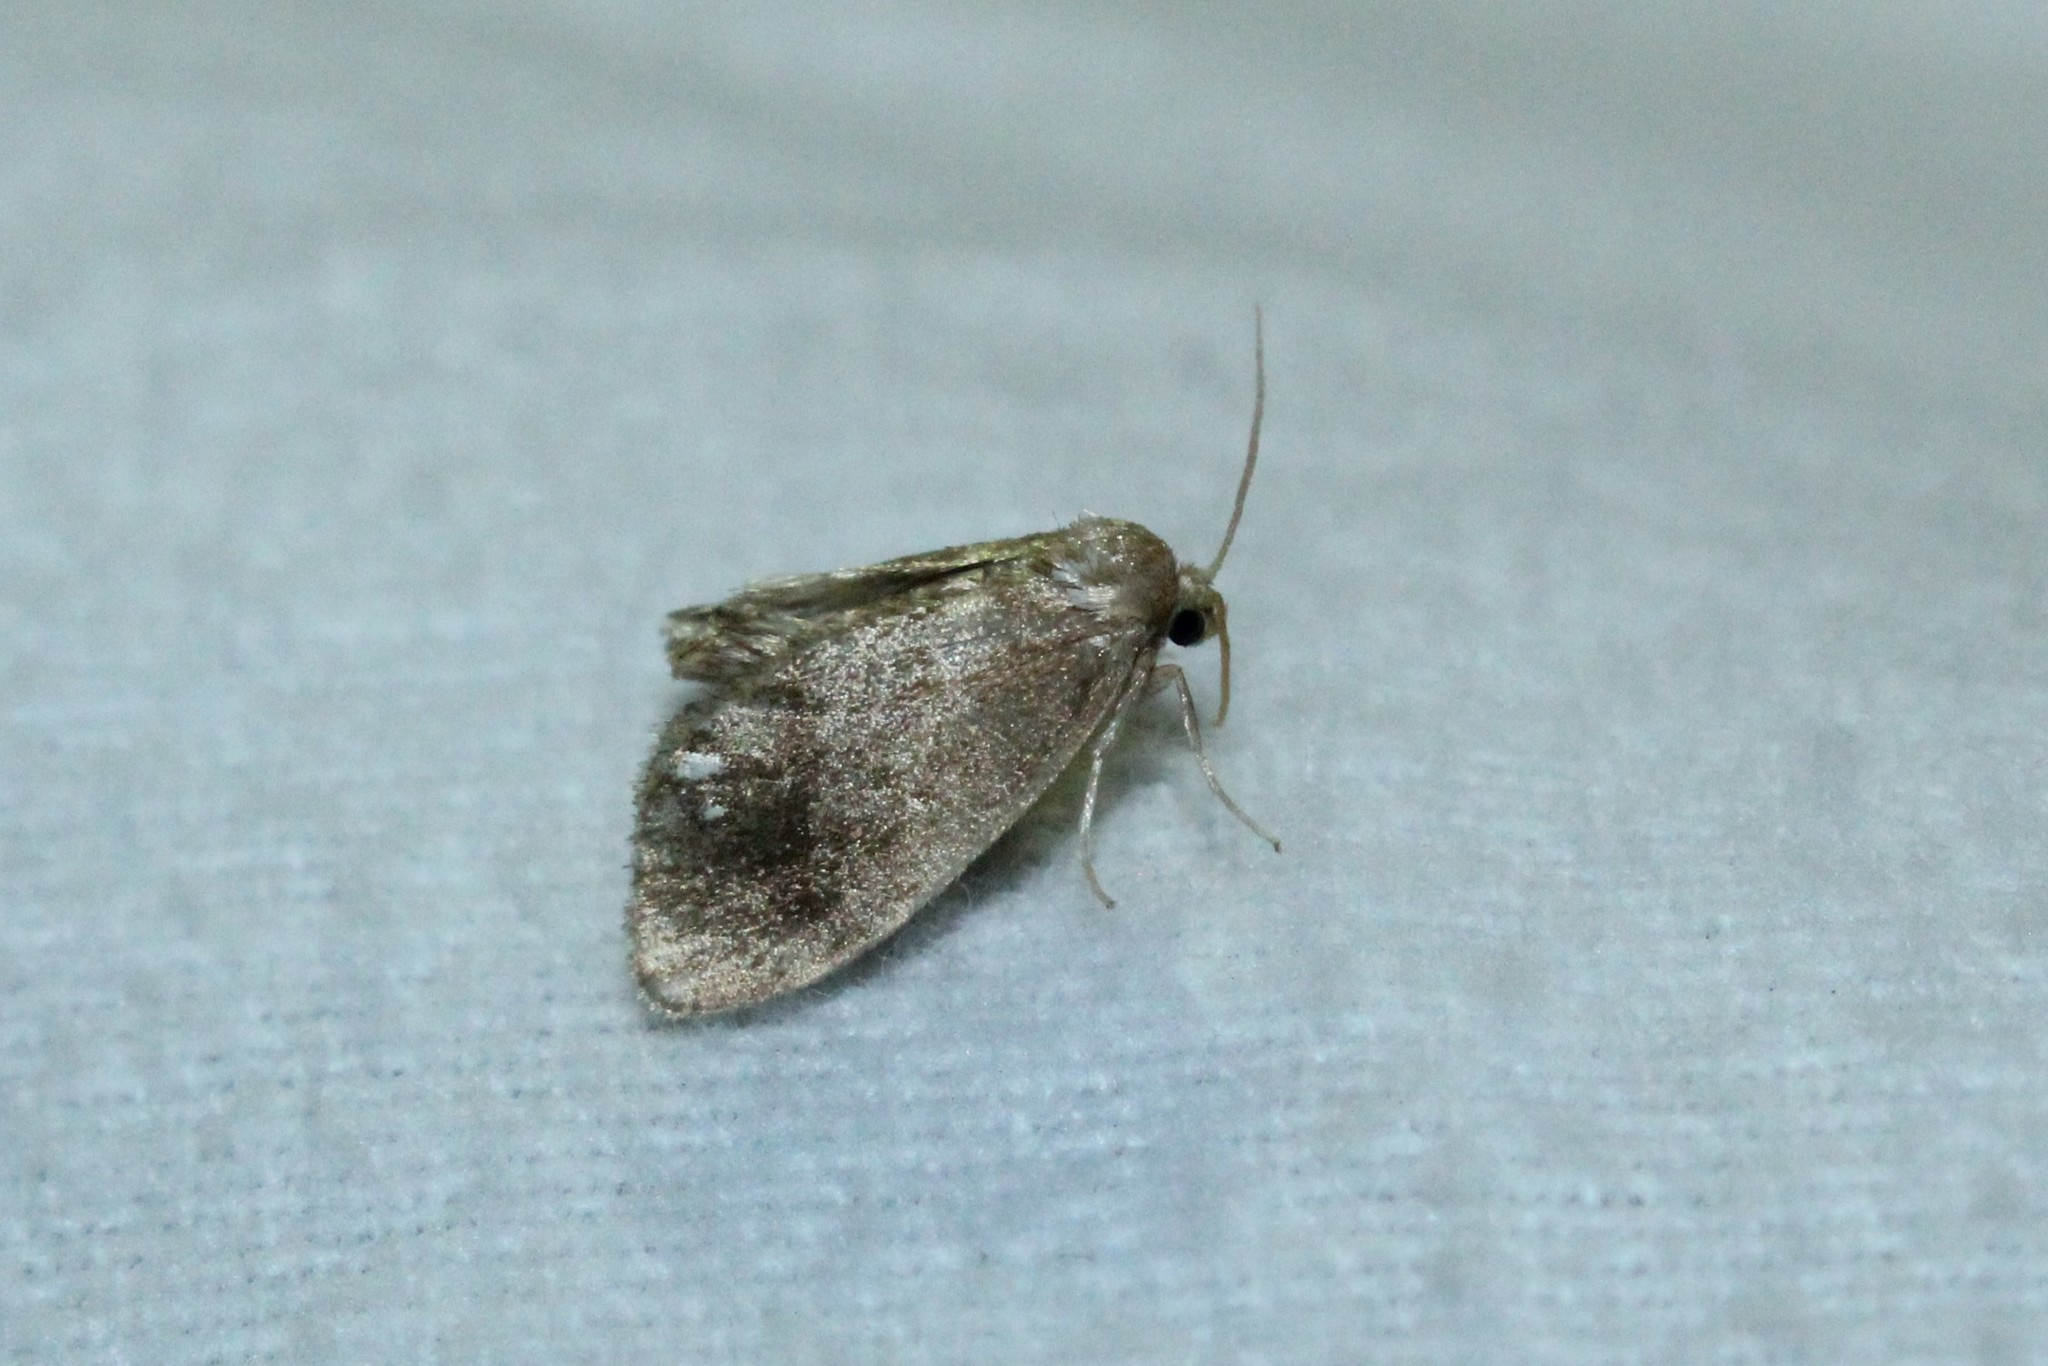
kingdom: Animalia
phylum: Arthropoda
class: Insecta
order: Lepidoptera
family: Limacodidae
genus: Packardia
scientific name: Packardia geminata
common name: Jeweled tailed slug moth
